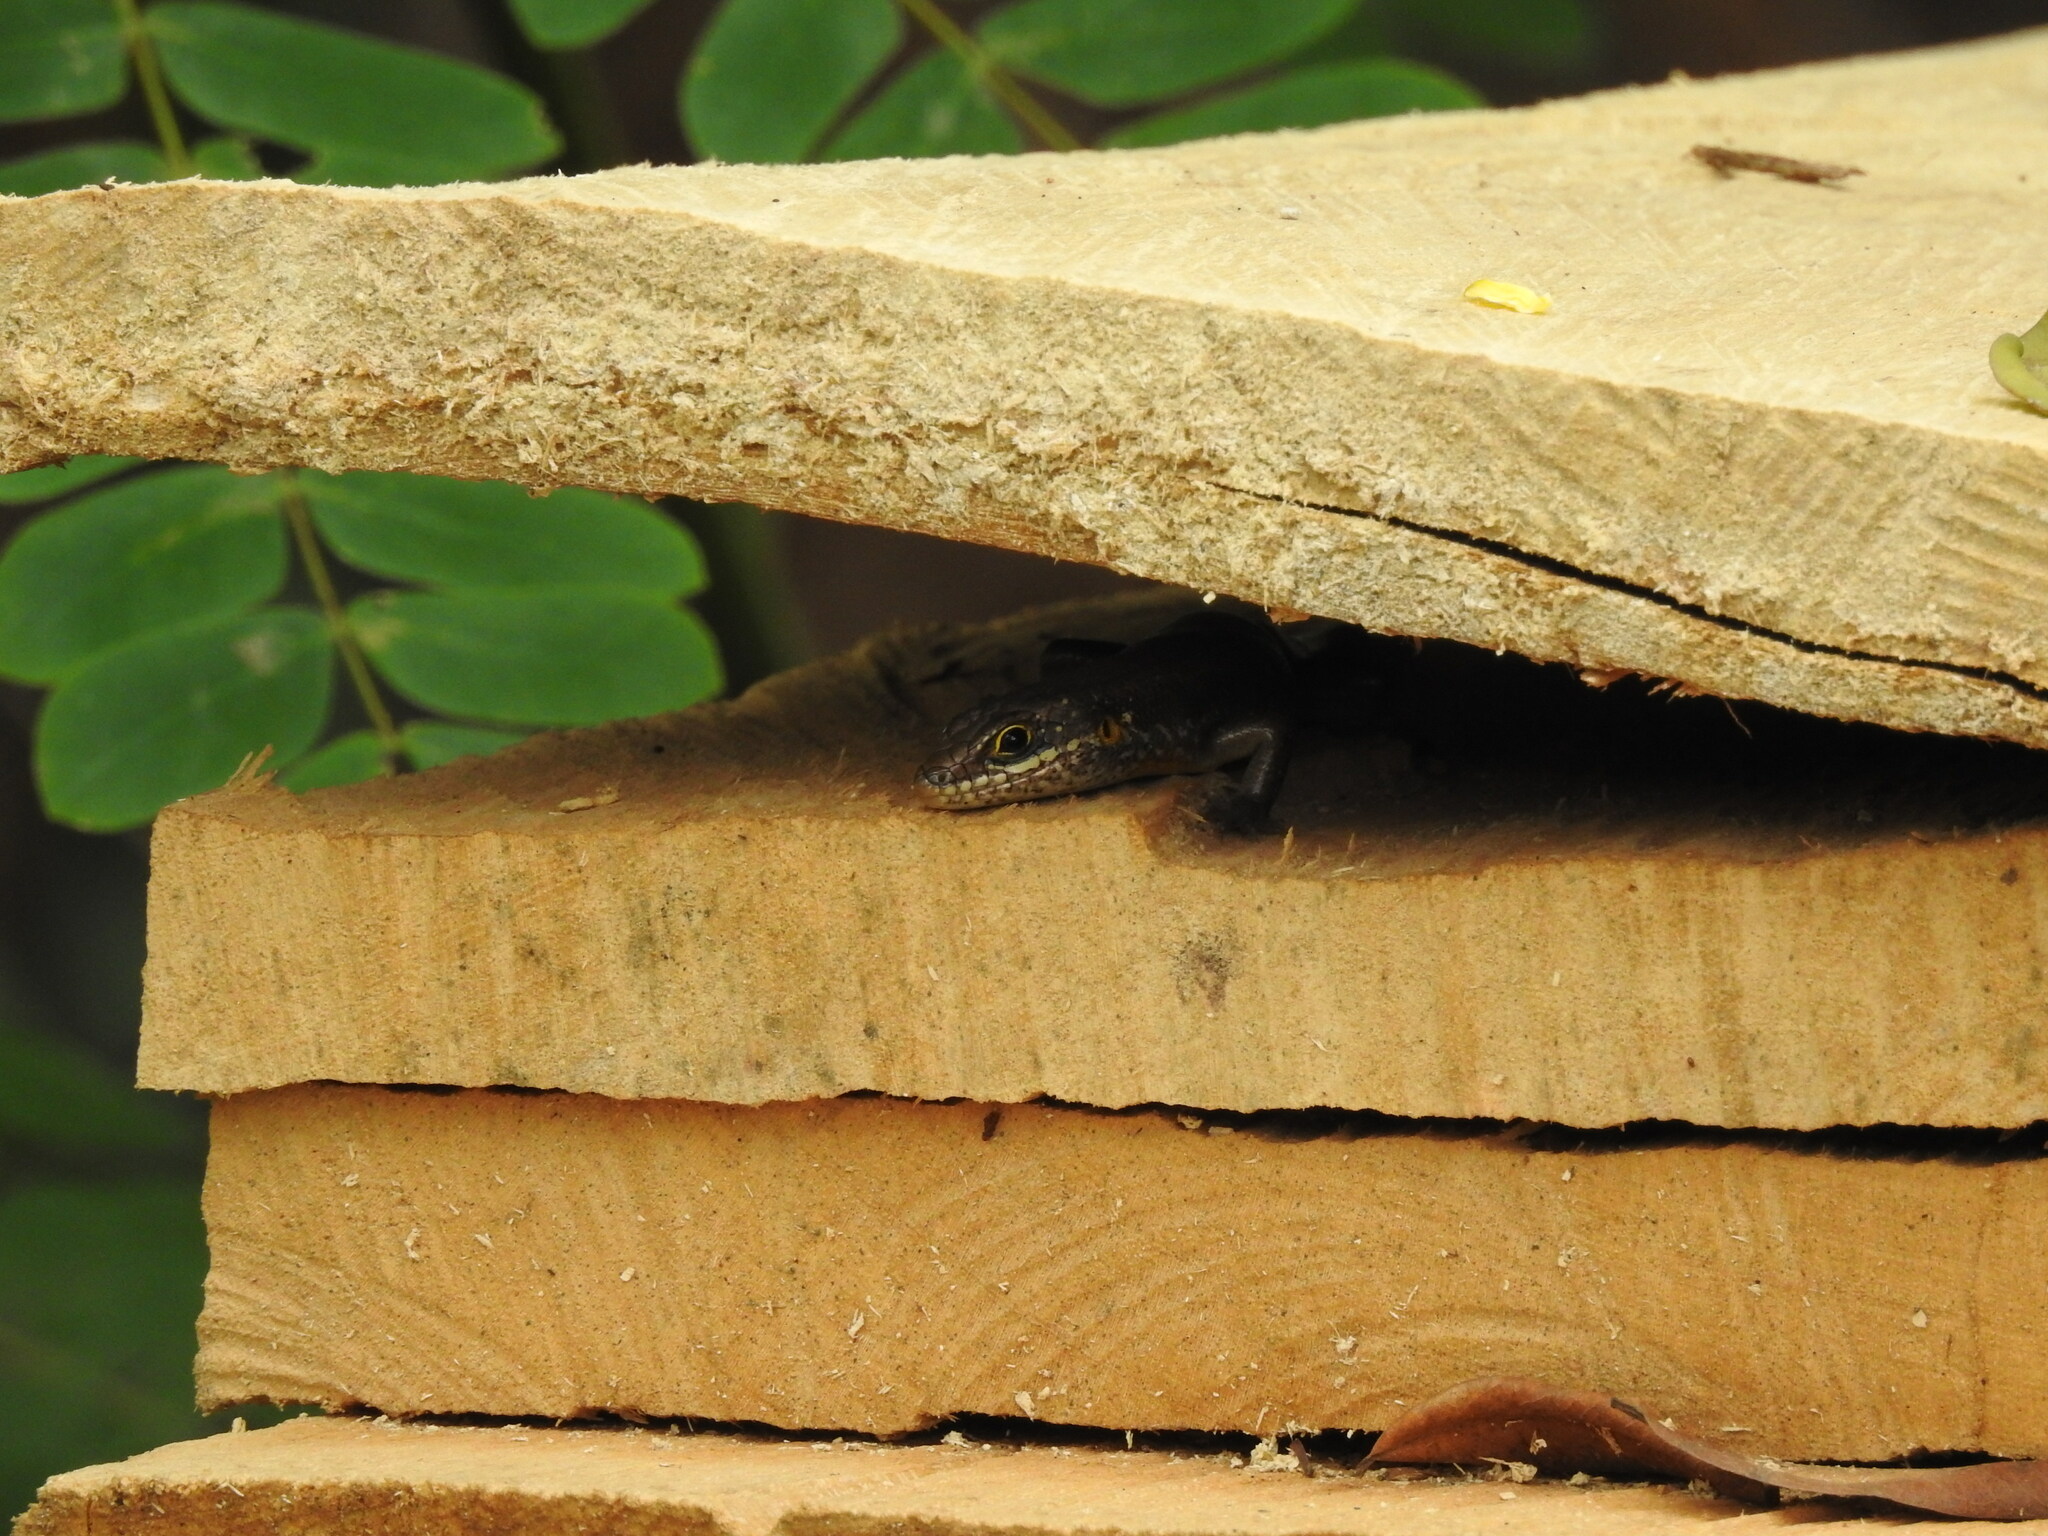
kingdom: Animalia
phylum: Chordata
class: Squamata
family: Scincidae
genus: Trachylepis
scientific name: Trachylepis maculilabris
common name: Speckle-lipped mabuya
